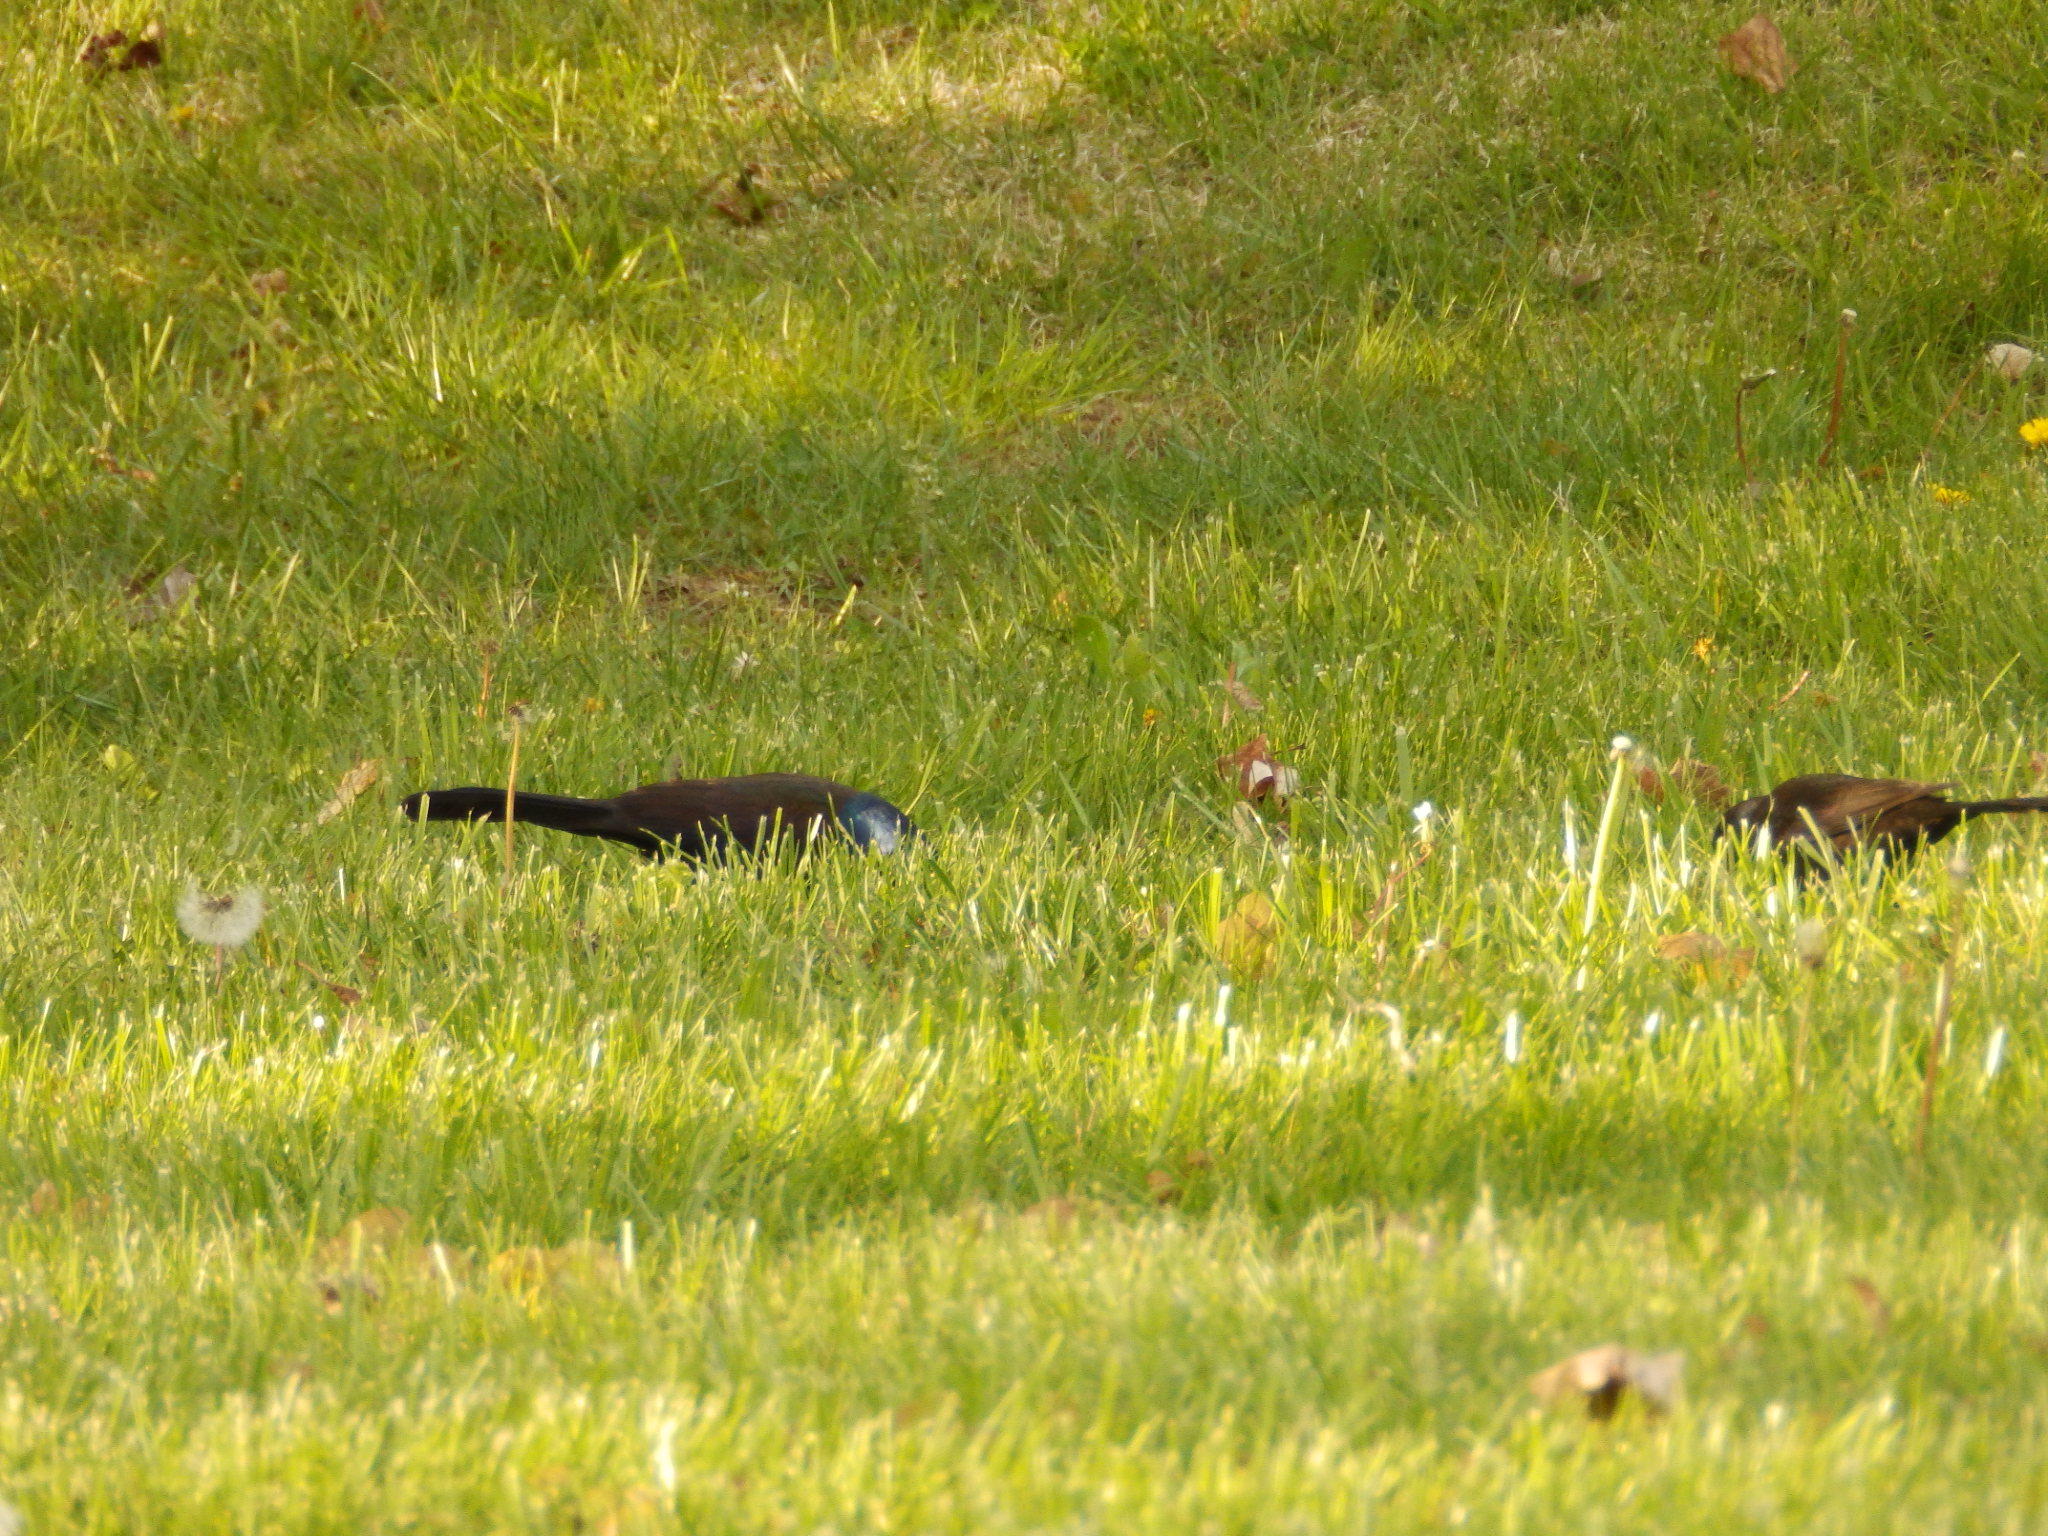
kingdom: Animalia
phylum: Chordata
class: Aves
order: Passeriformes
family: Icteridae
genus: Quiscalus
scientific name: Quiscalus quiscula
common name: Common grackle
